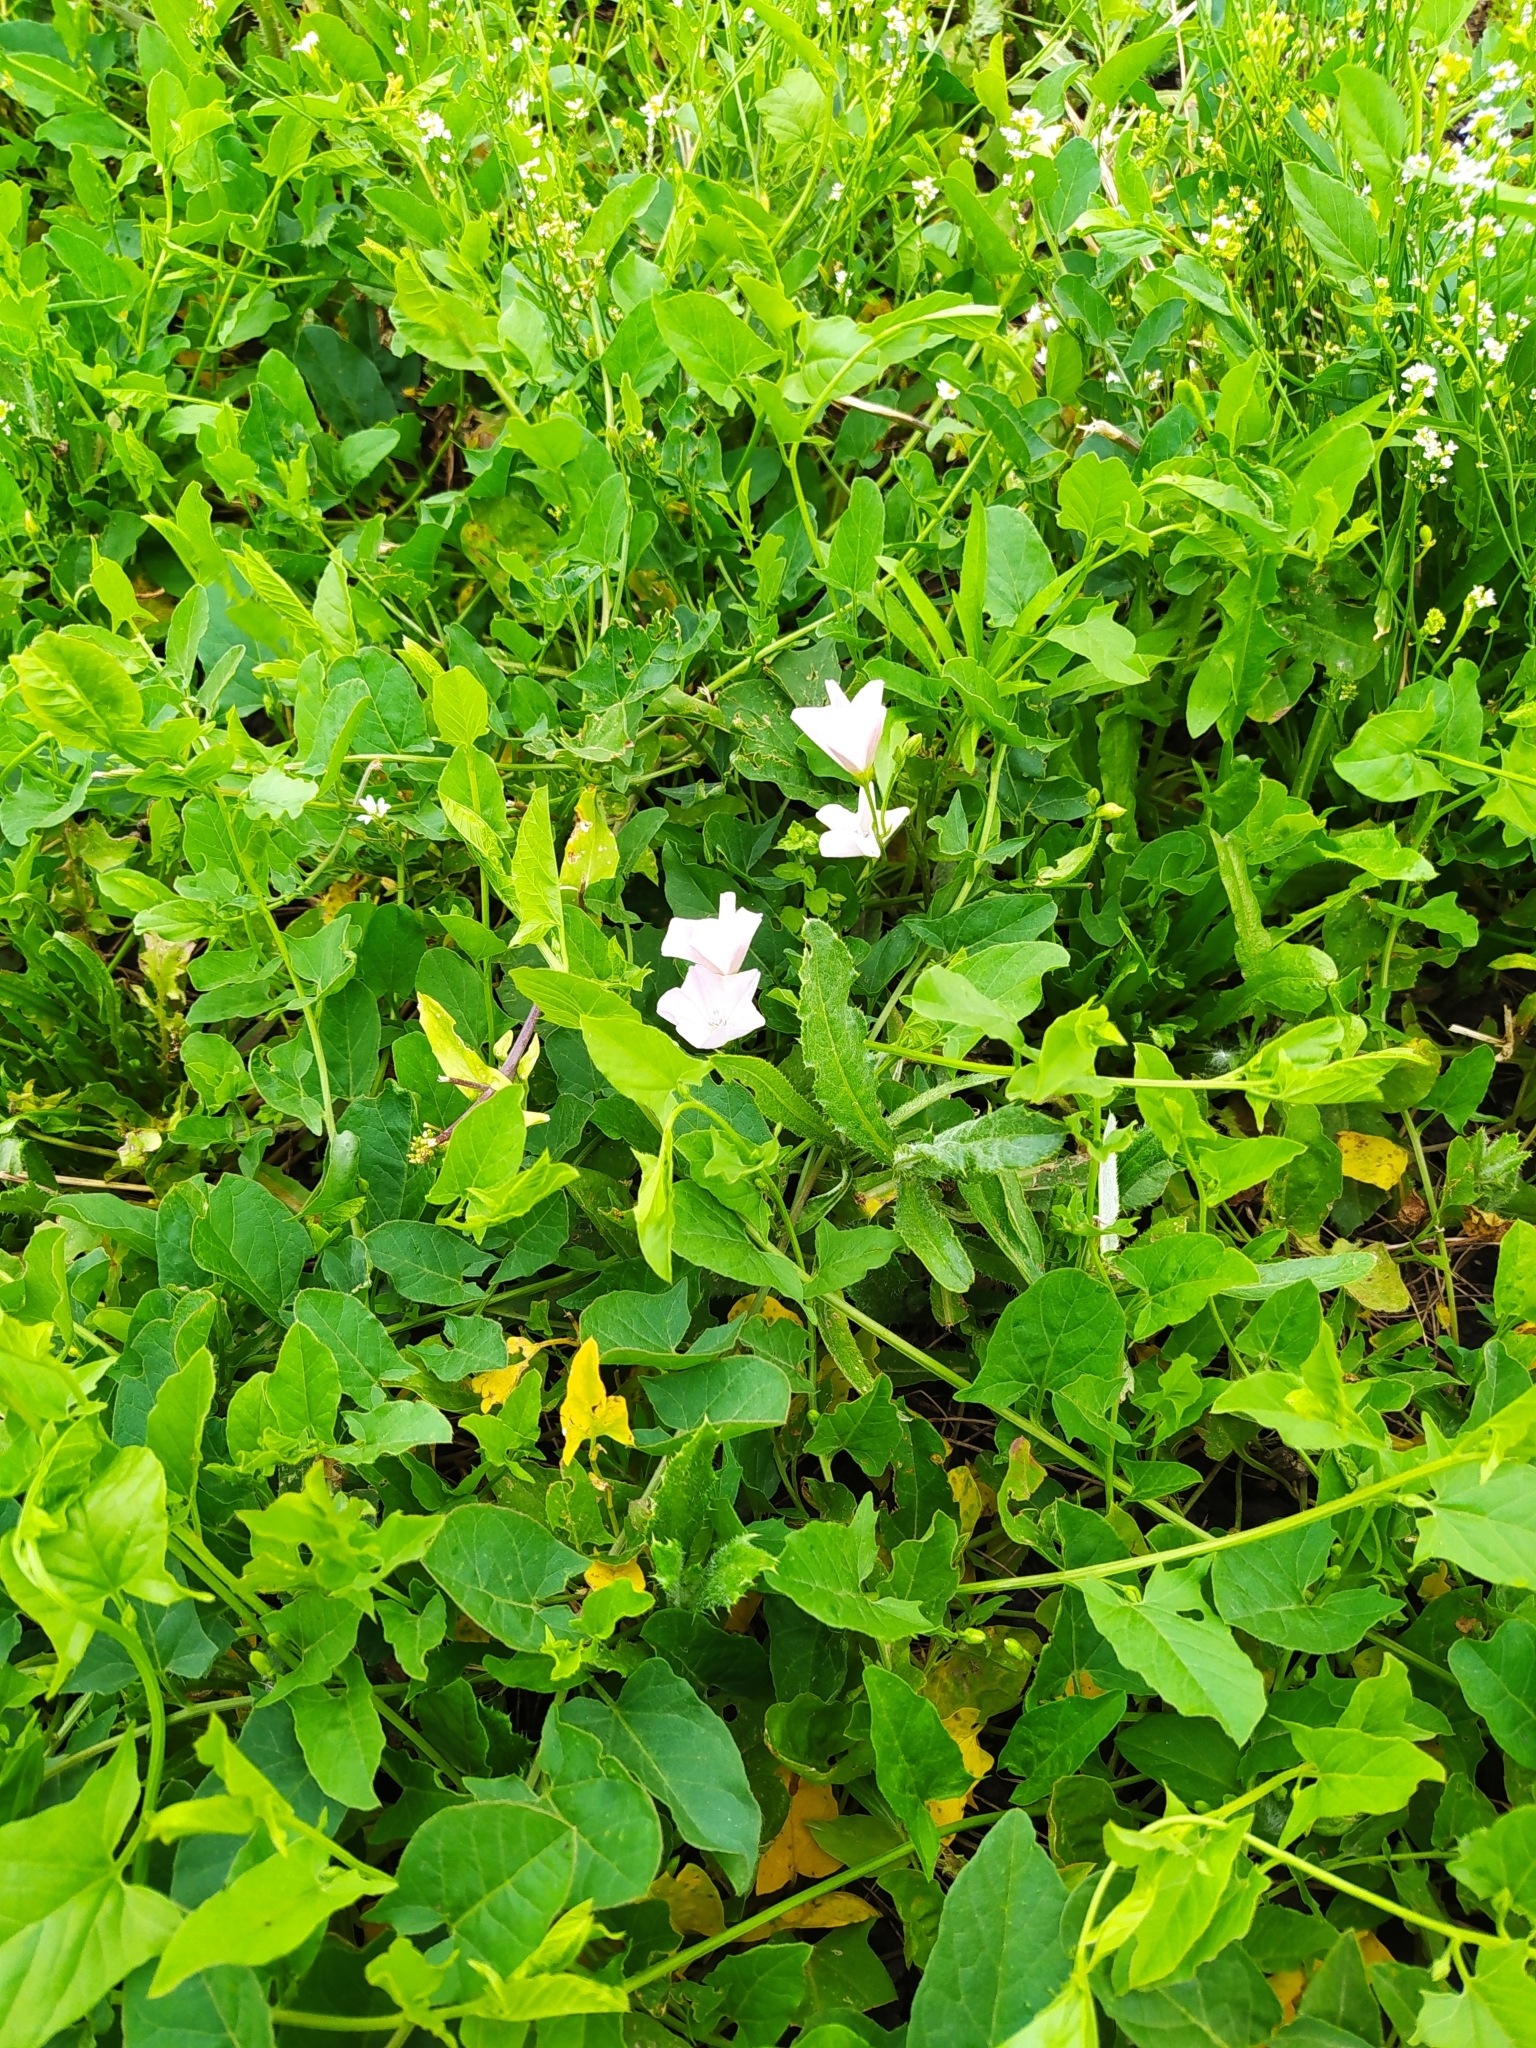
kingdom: Plantae
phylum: Tracheophyta
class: Magnoliopsida
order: Solanales
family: Convolvulaceae
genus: Convolvulus
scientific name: Convolvulus arvensis
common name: Field bindweed
